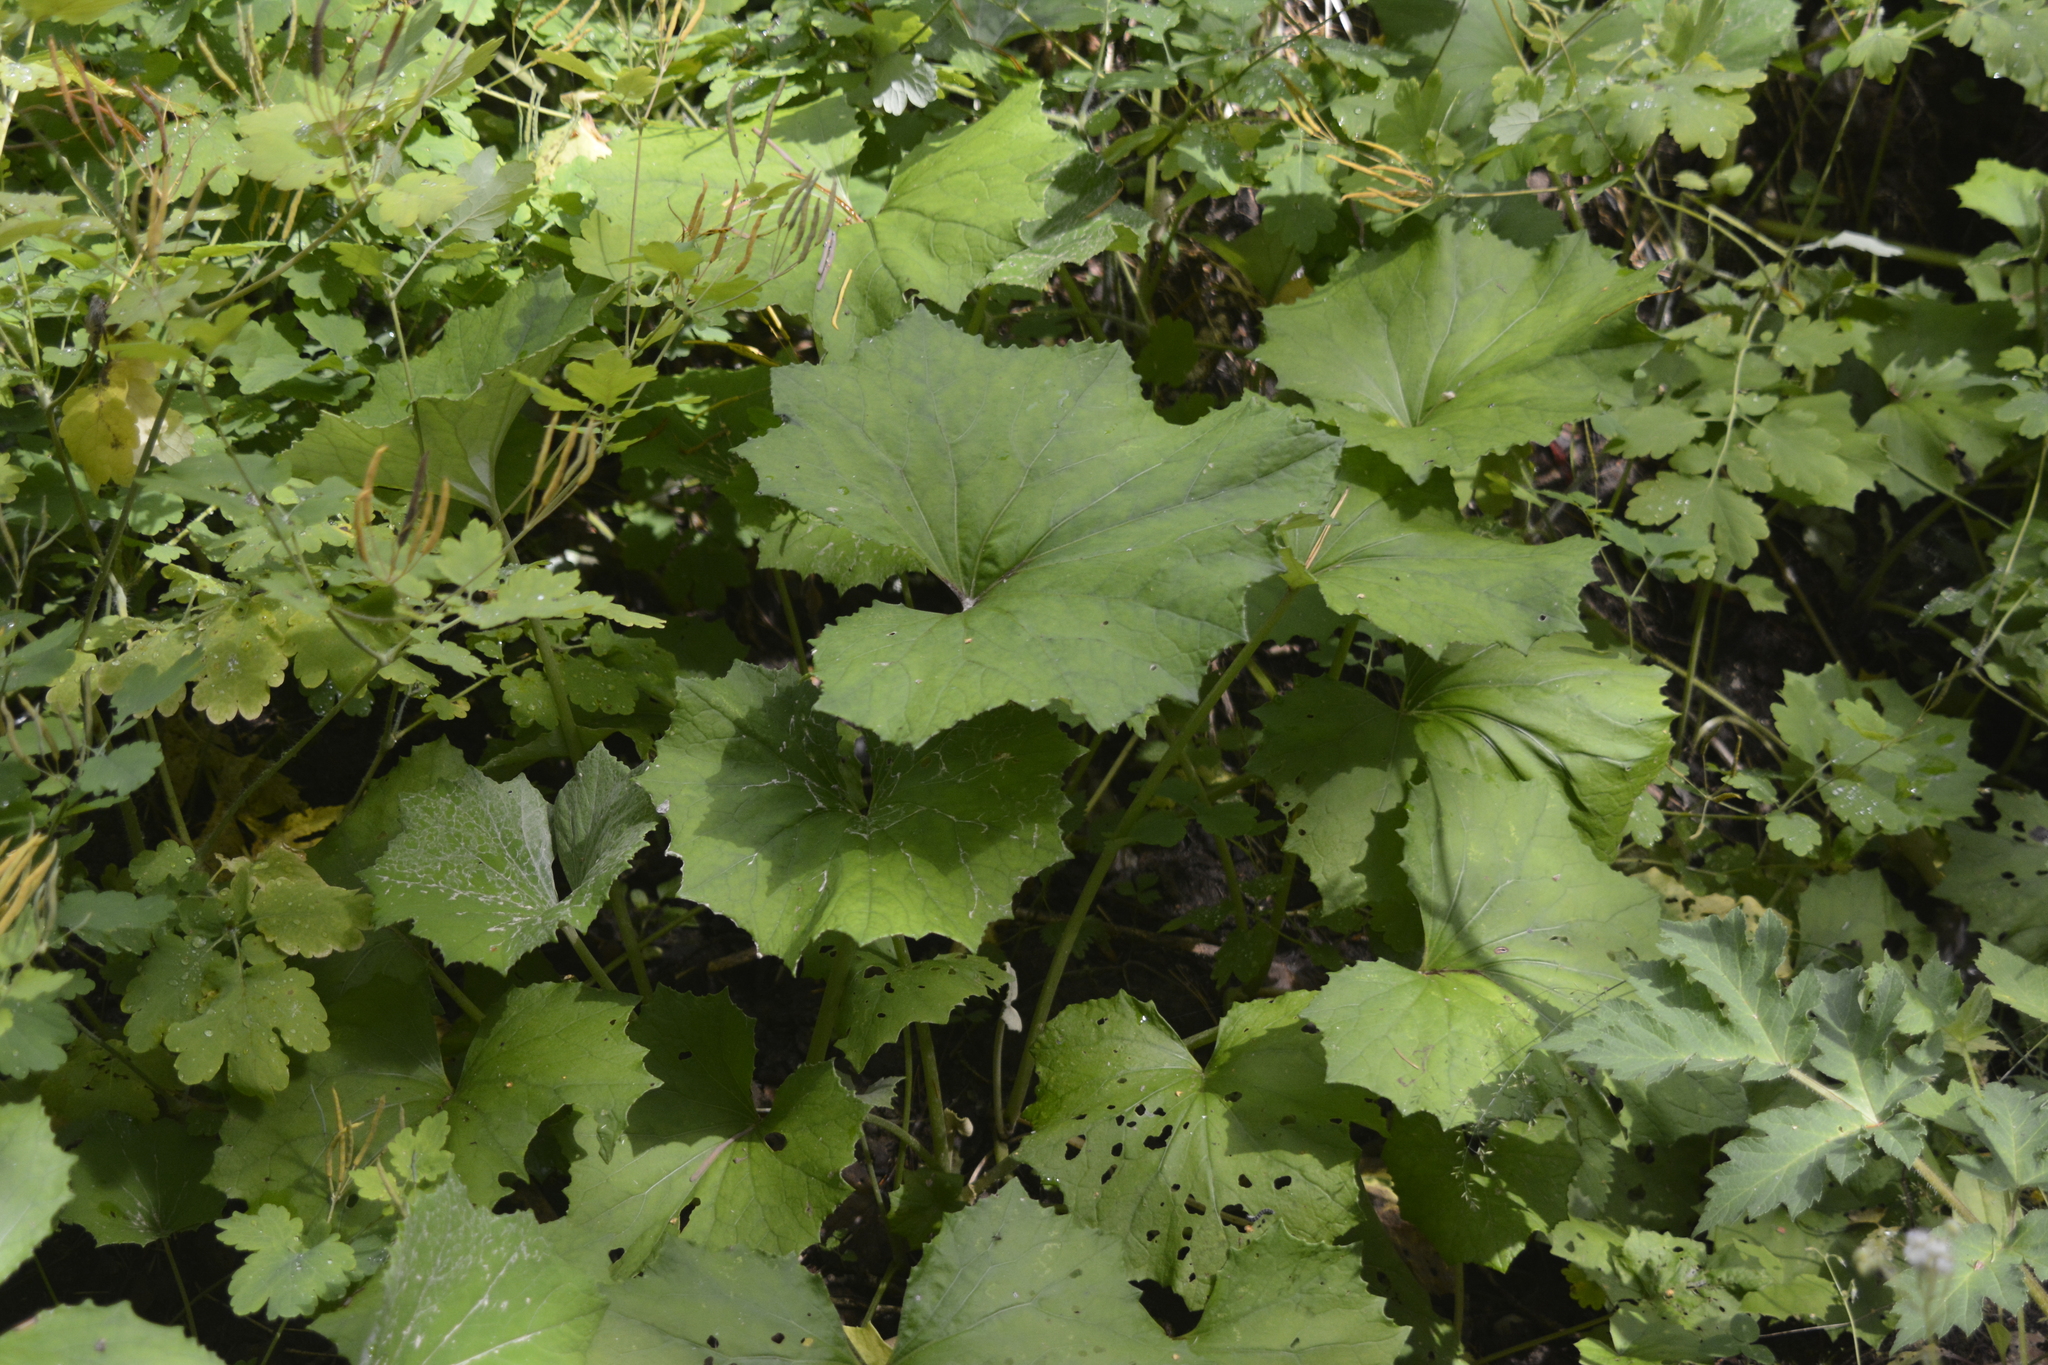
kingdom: Plantae
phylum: Tracheophyta
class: Magnoliopsida
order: Asterales
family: Asteraceae
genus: Tussilago
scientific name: Tussilago farfara
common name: Coltsfoot
